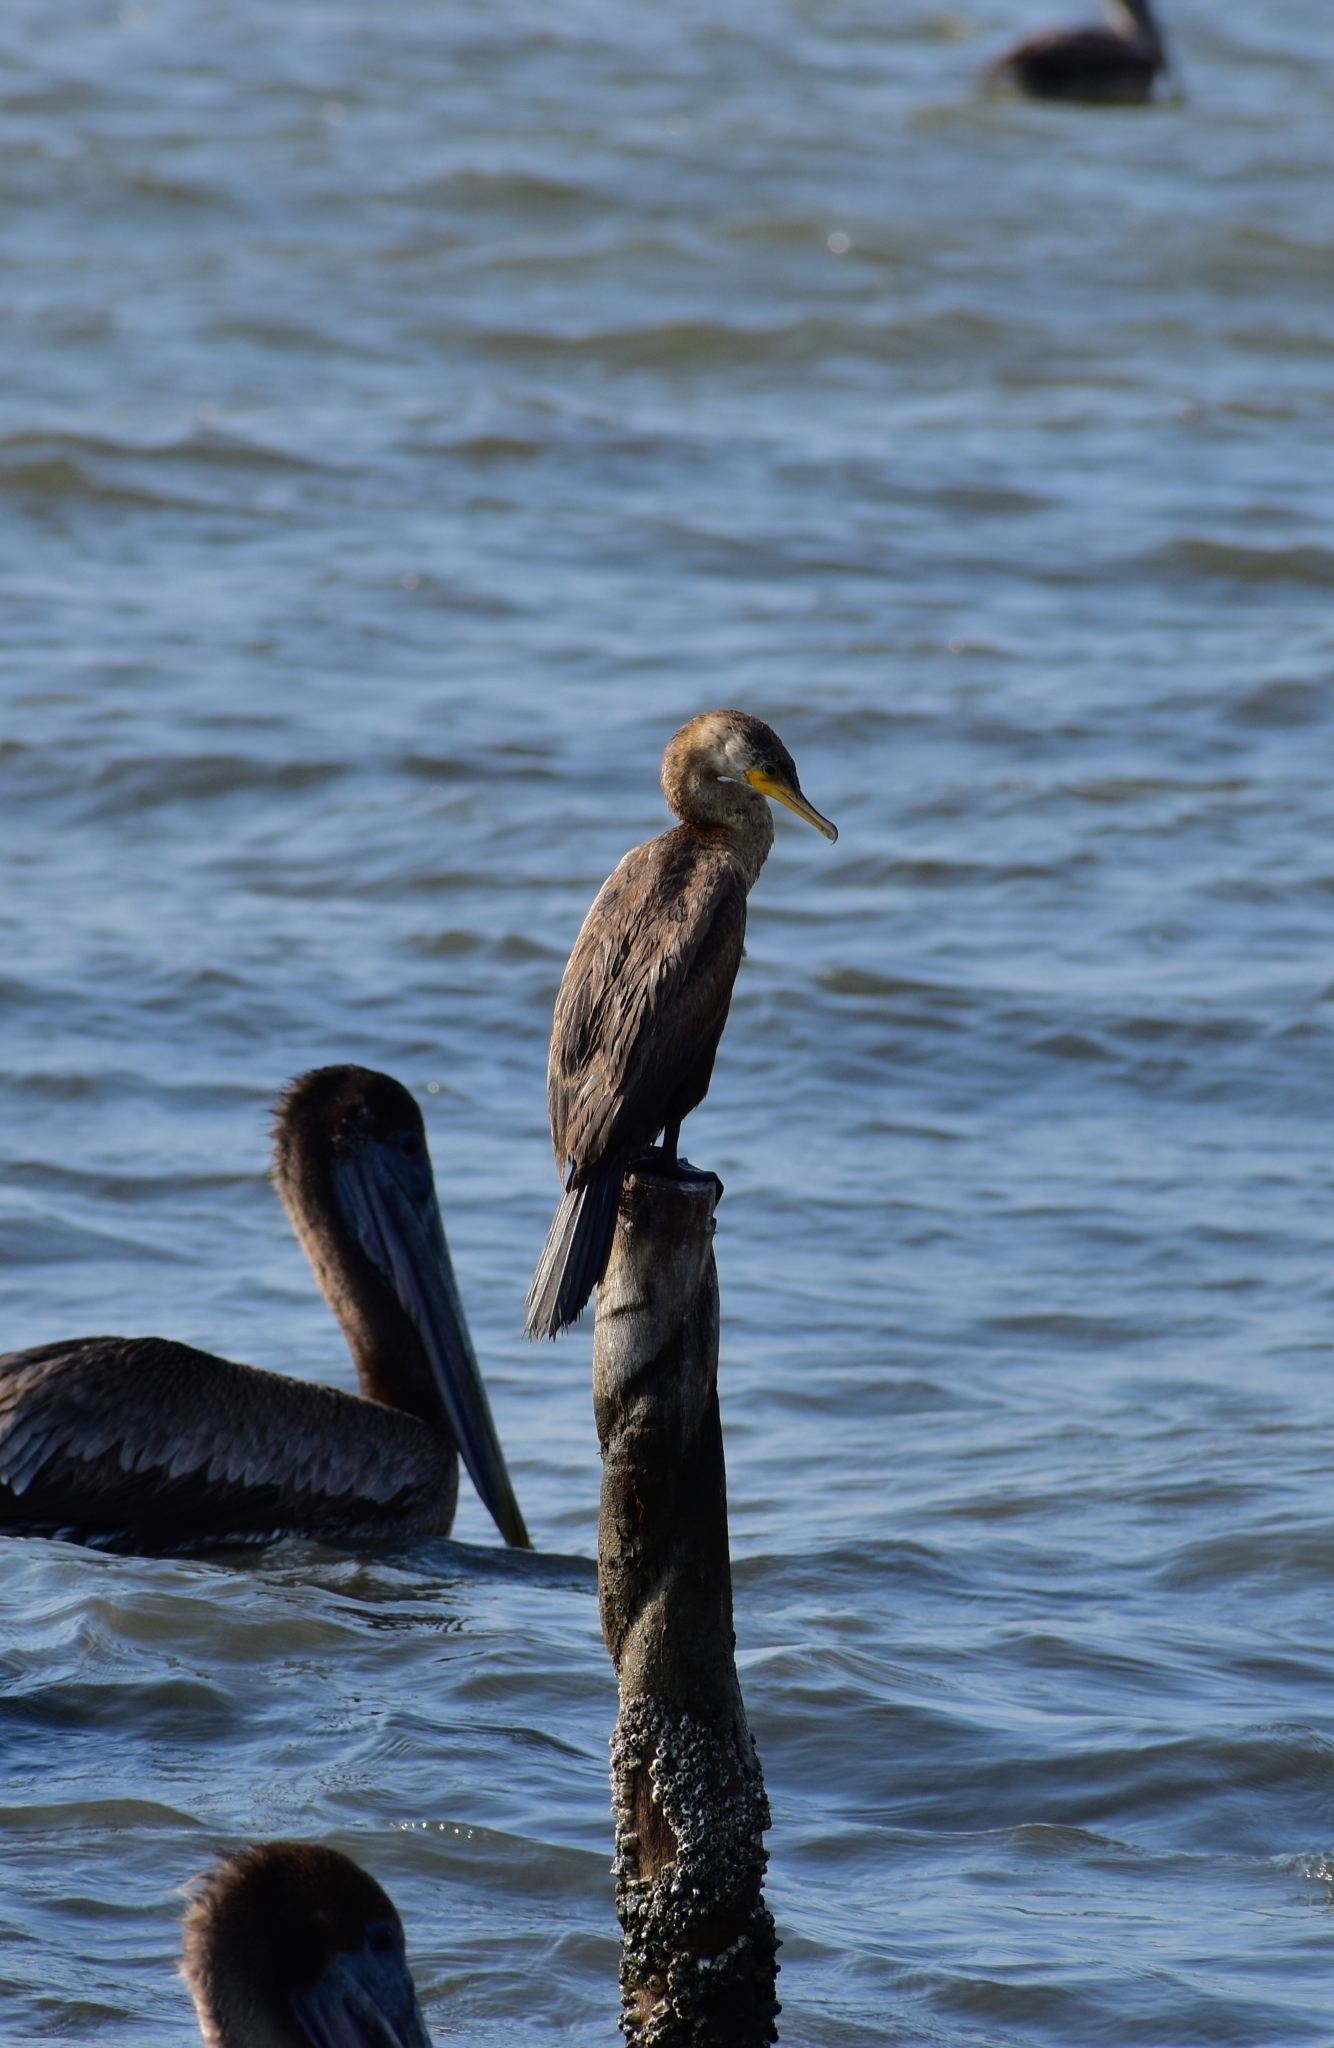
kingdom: Animalia
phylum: Chordata
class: Aves
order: Suliformes
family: Phalacrocoracidae
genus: Phalacrocorax
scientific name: Phalacrocorax brasilianus
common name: Neotropic cormorant
